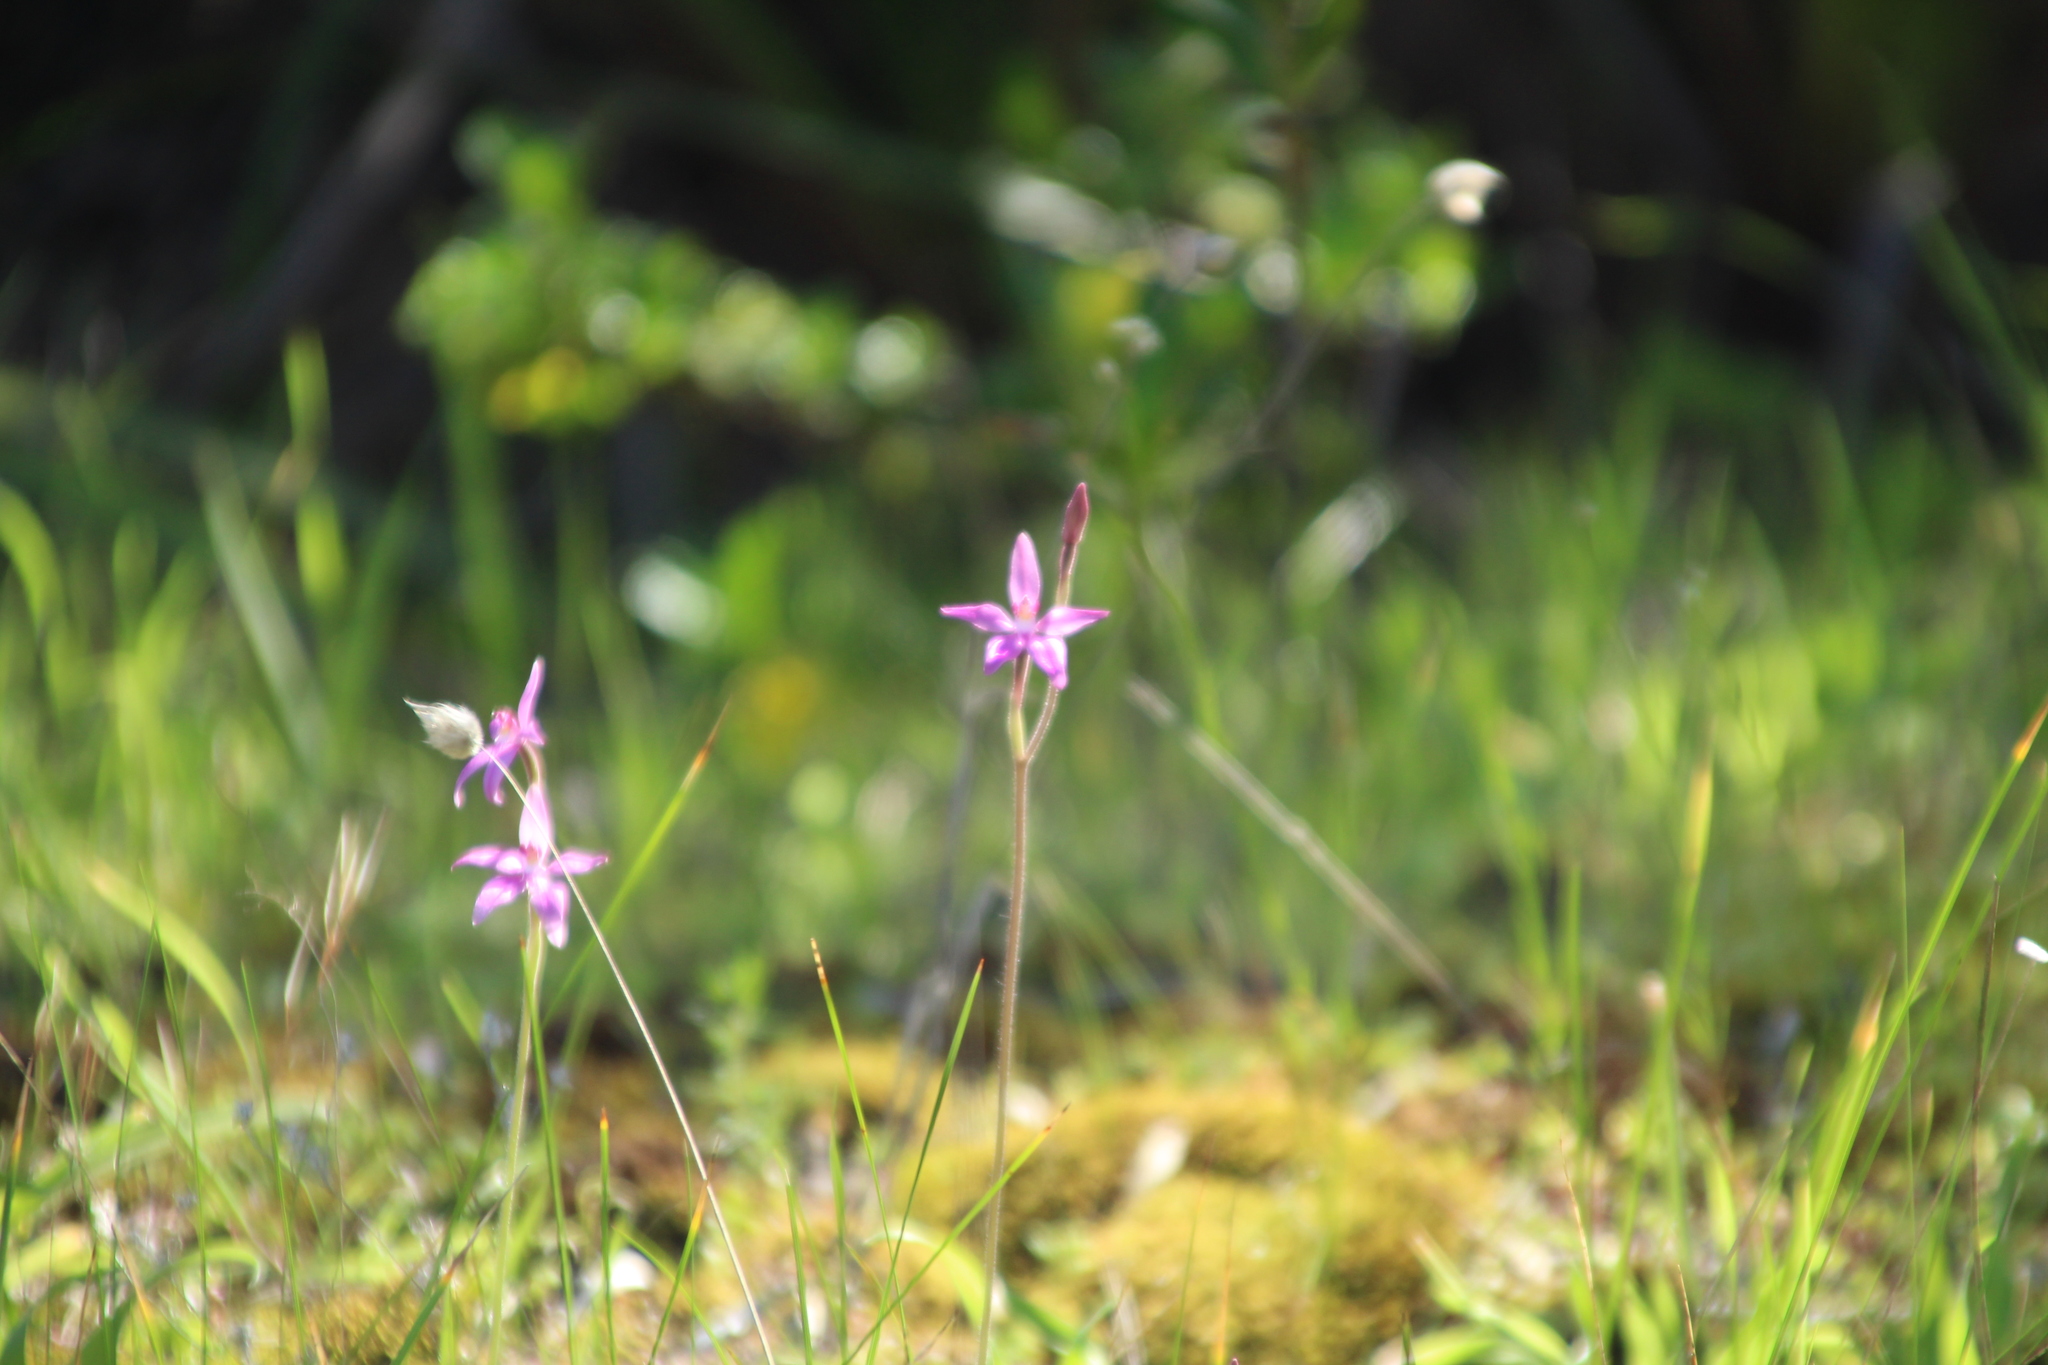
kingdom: Plantae
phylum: Tracheophyta
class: Liliopsida
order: Asparagales
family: Orchidaceae
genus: Caladenia
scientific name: Caladenia latifolia
